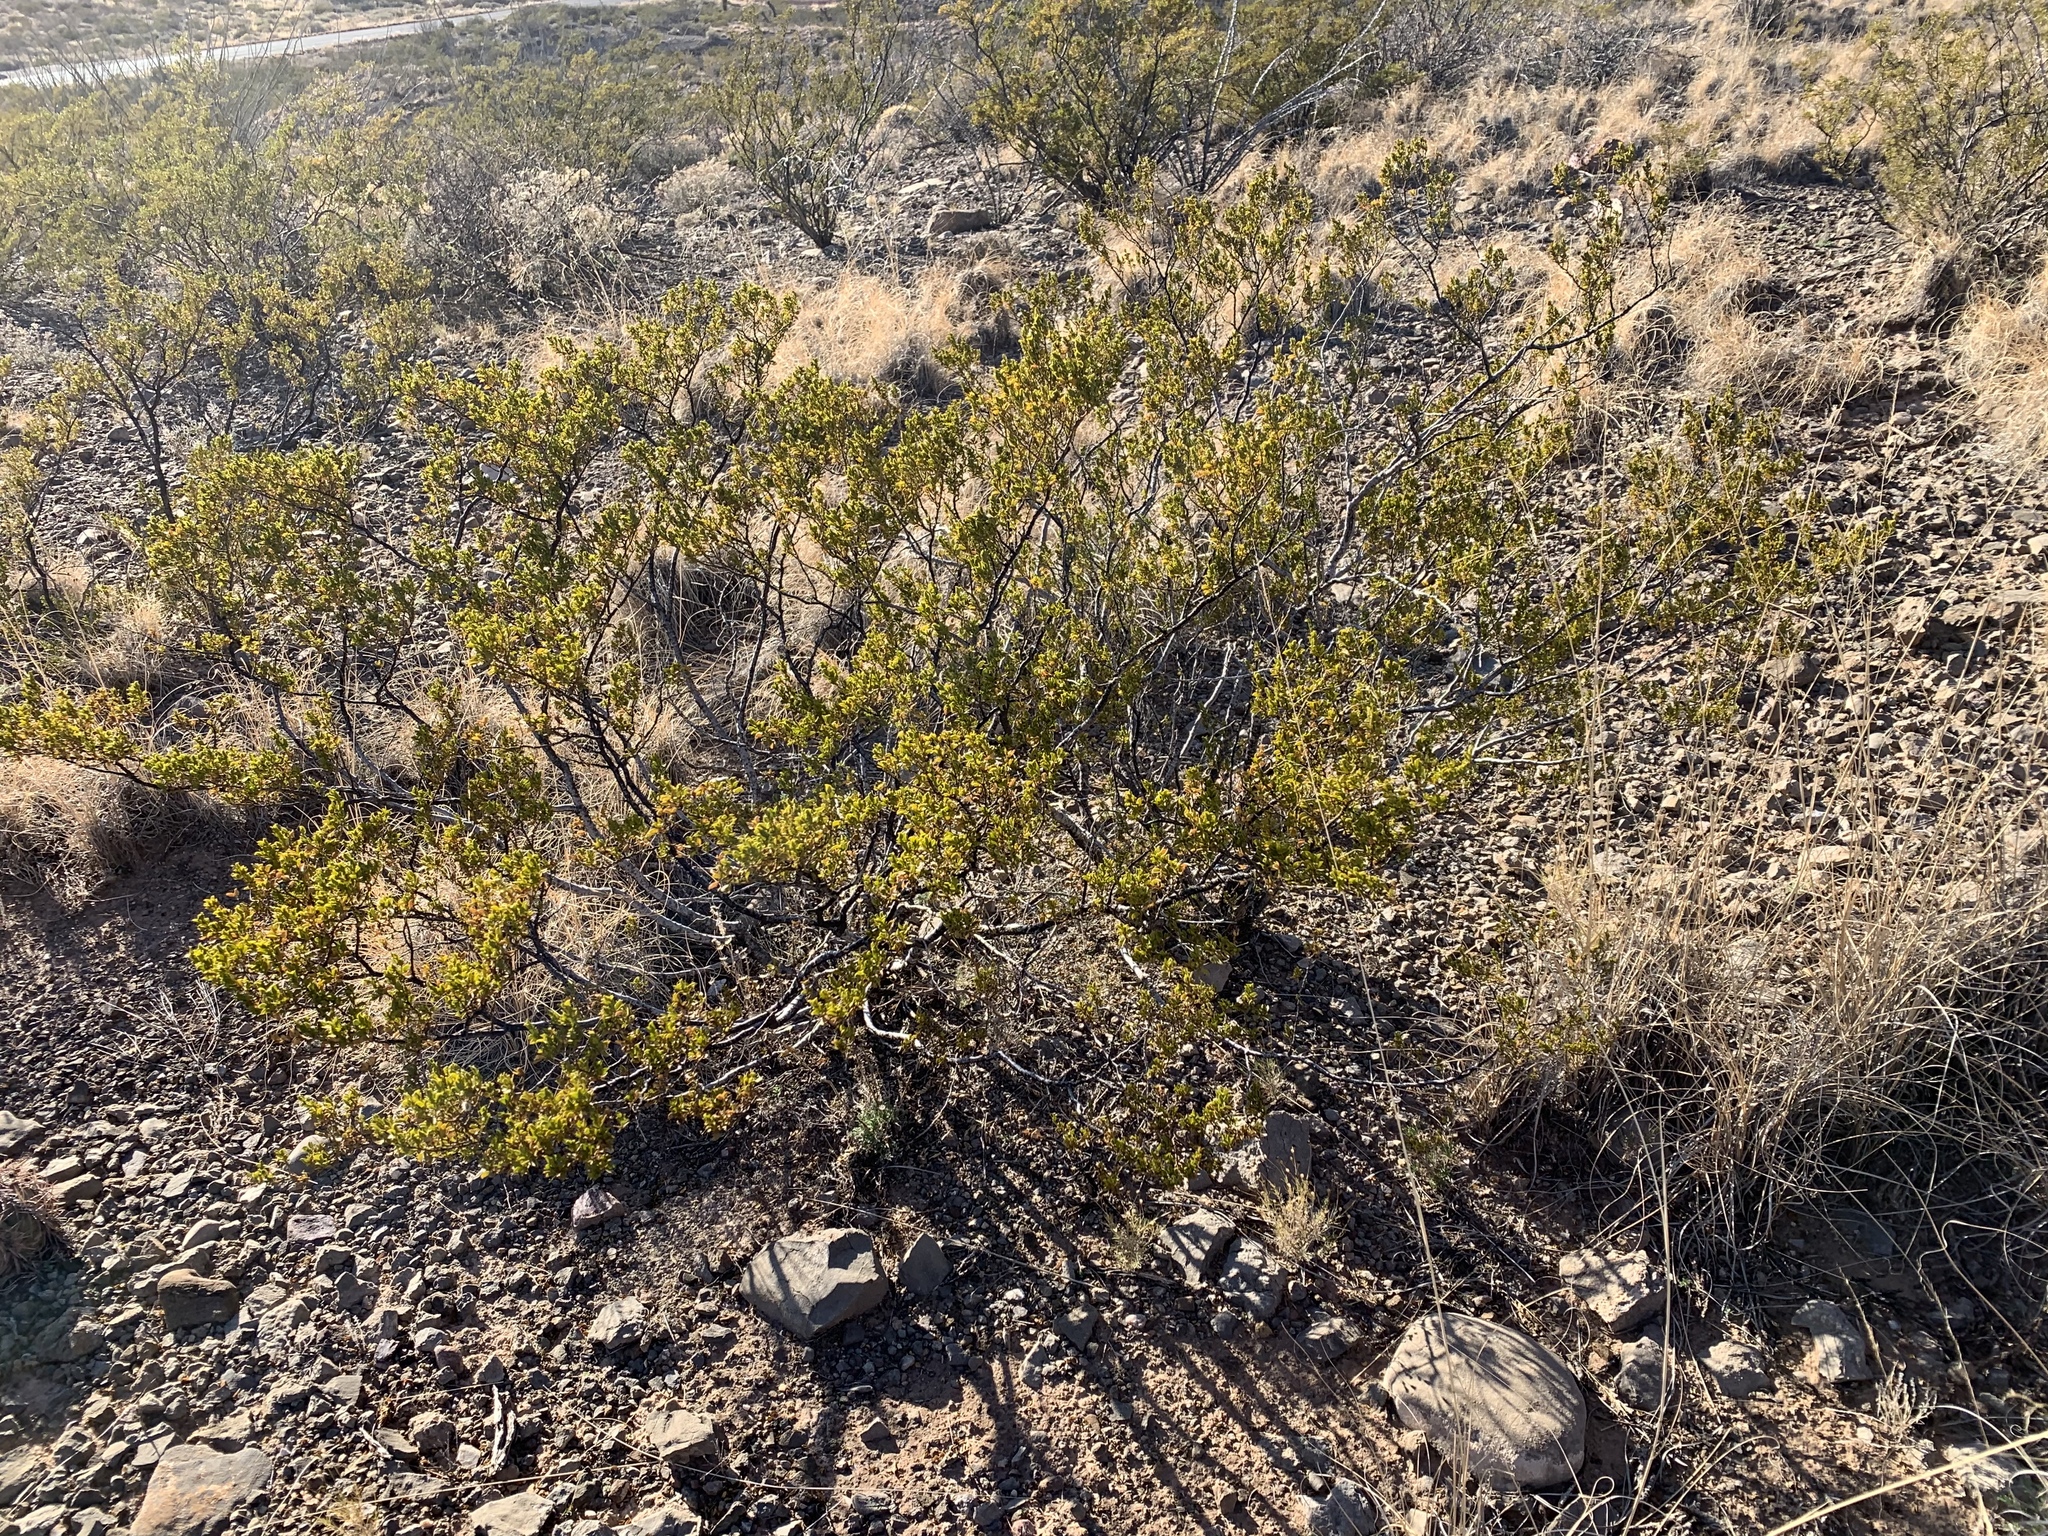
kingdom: Plantae
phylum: Tracheophyta
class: Magnoliopsida
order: Zygophyllales
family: Zygophyllaceae
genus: Larrea
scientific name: Larrea tridentata
